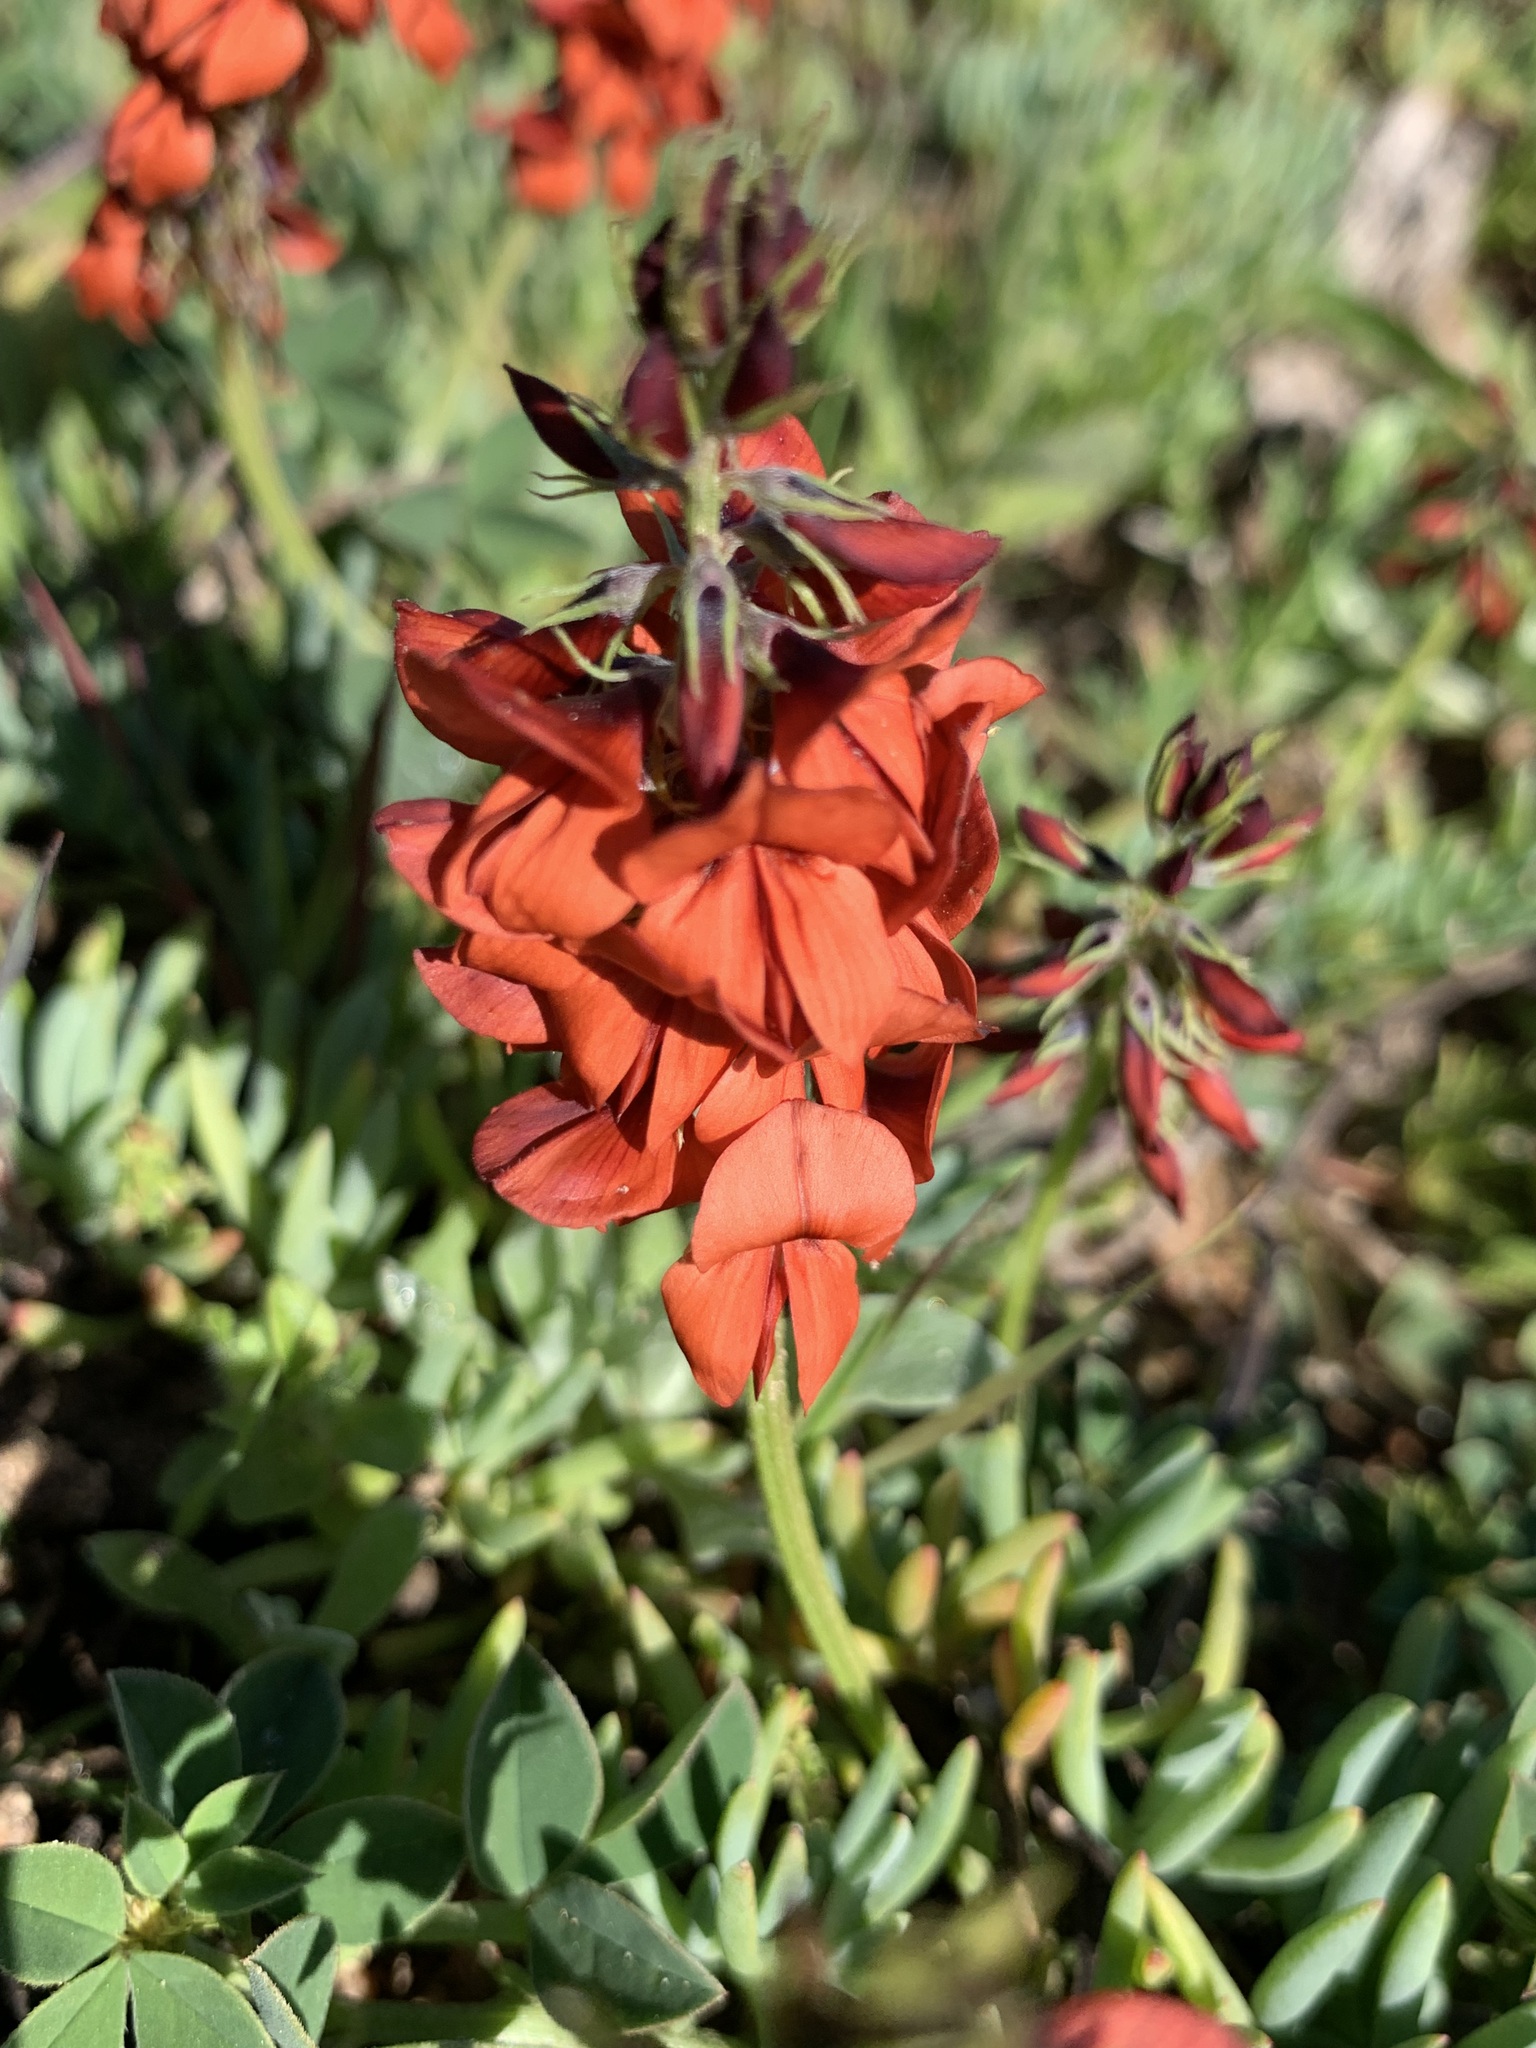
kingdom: Plantae
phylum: Tracheophyta
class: Magnoliopsida
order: Fabales
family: Fabaceae
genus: Indigofera
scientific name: Indigofera discolor
